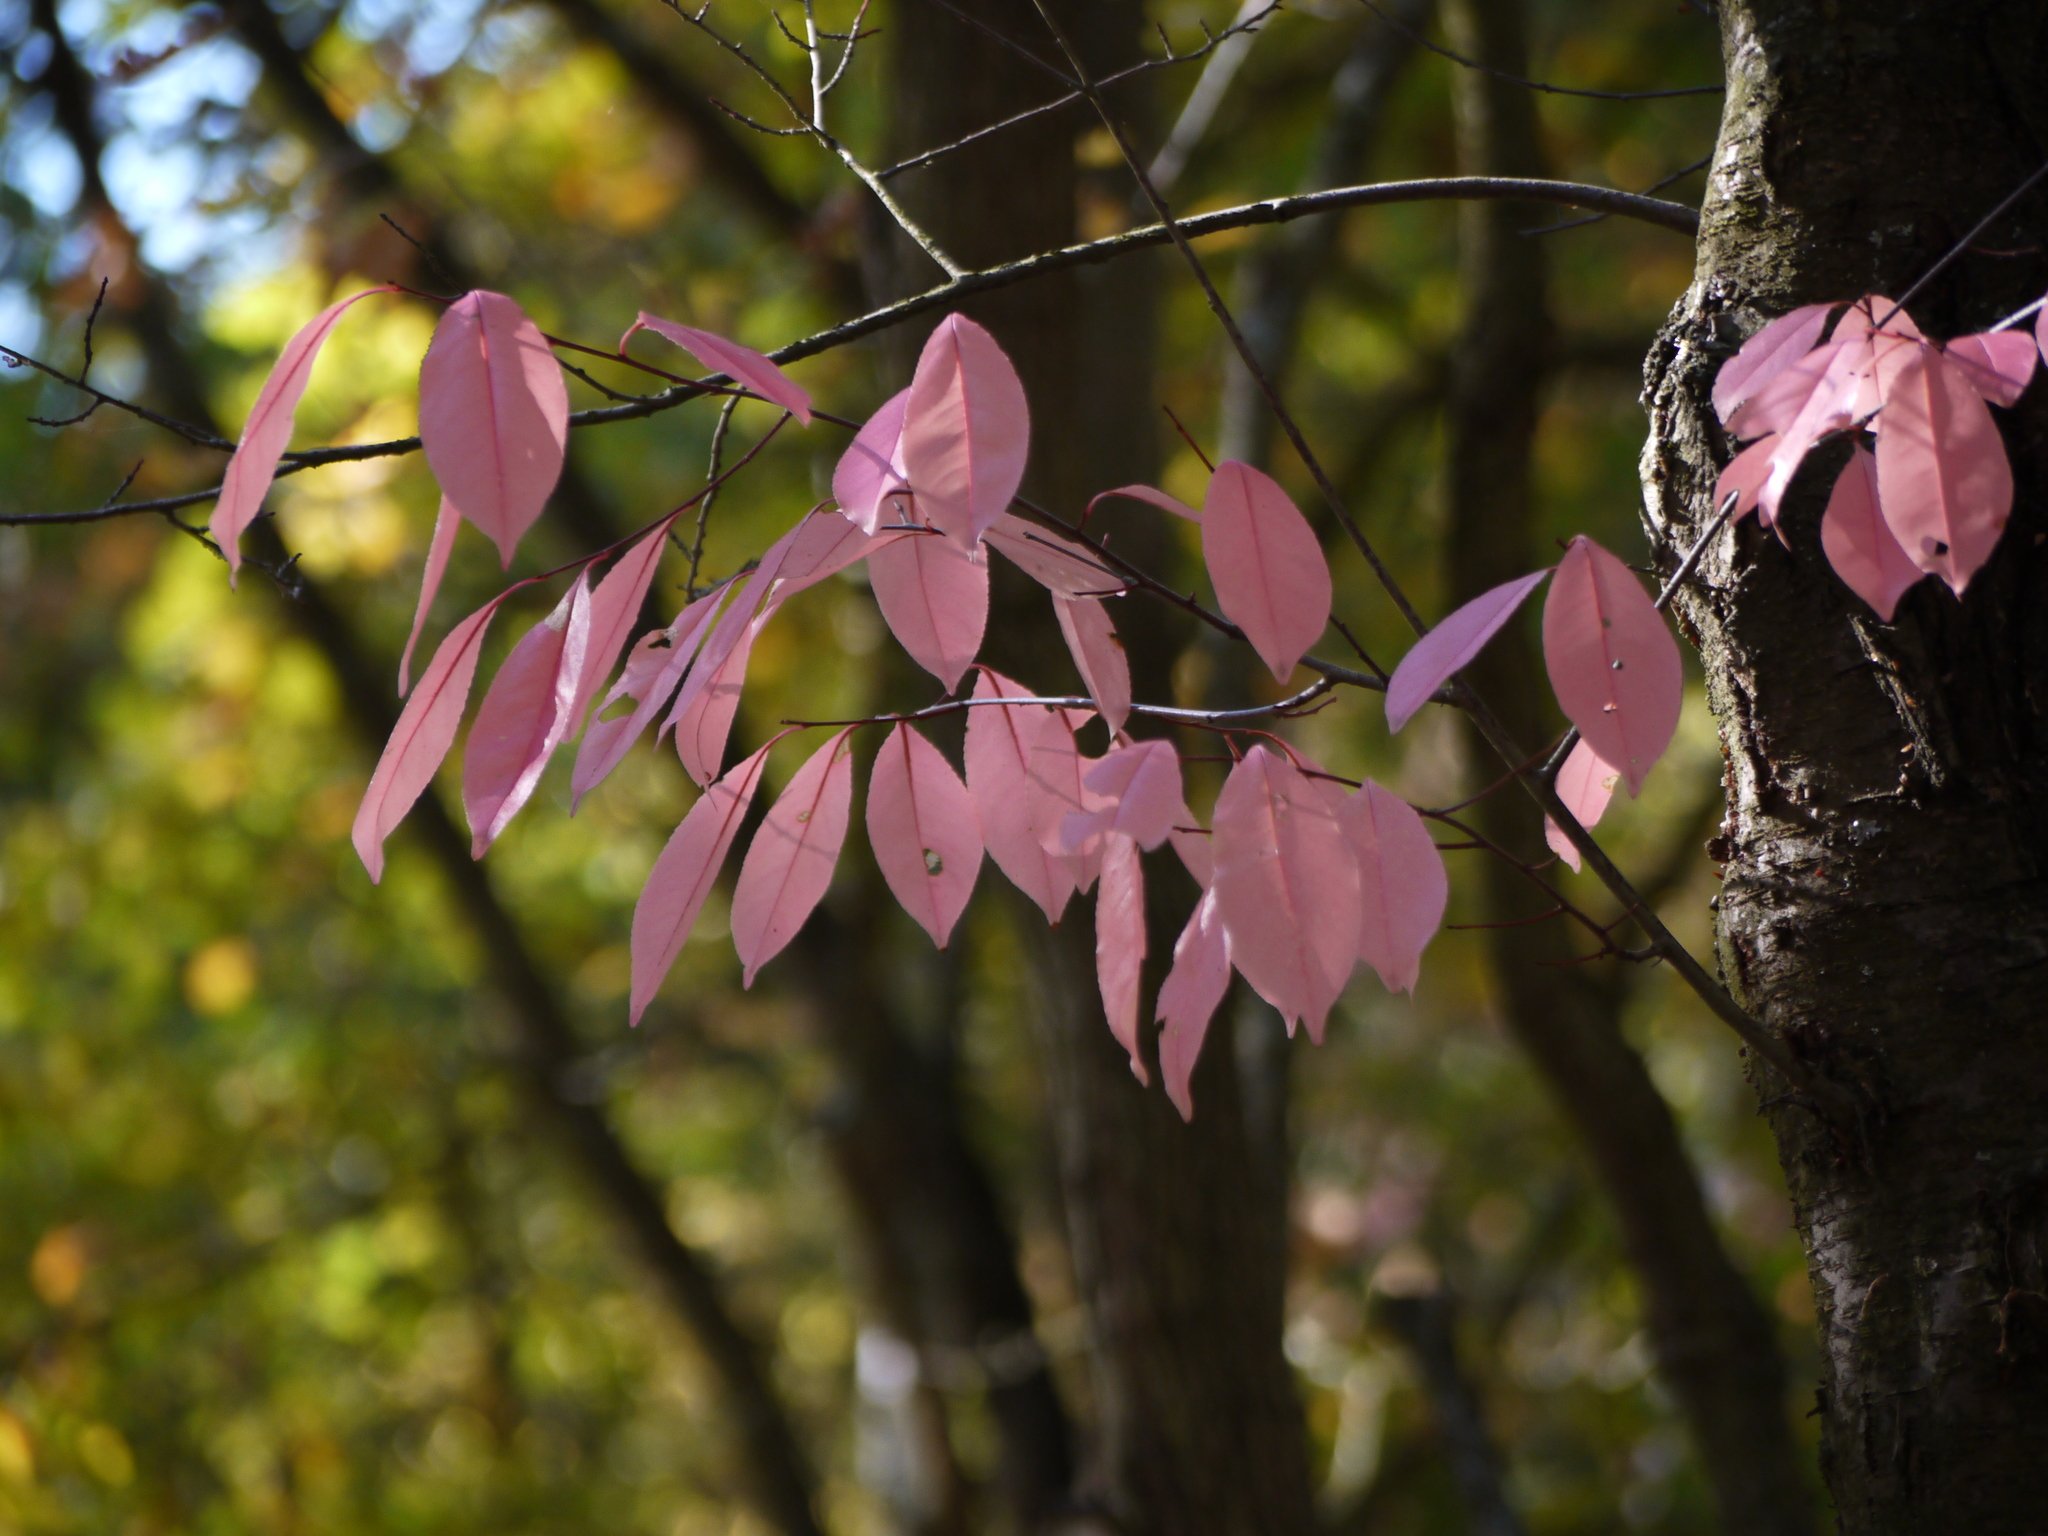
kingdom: Plantae
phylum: Tracheophyta
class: Magnoliopsida
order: Rosales
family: Rosaceae
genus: Prunus
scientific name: Prunus serotina
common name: Black cherry
